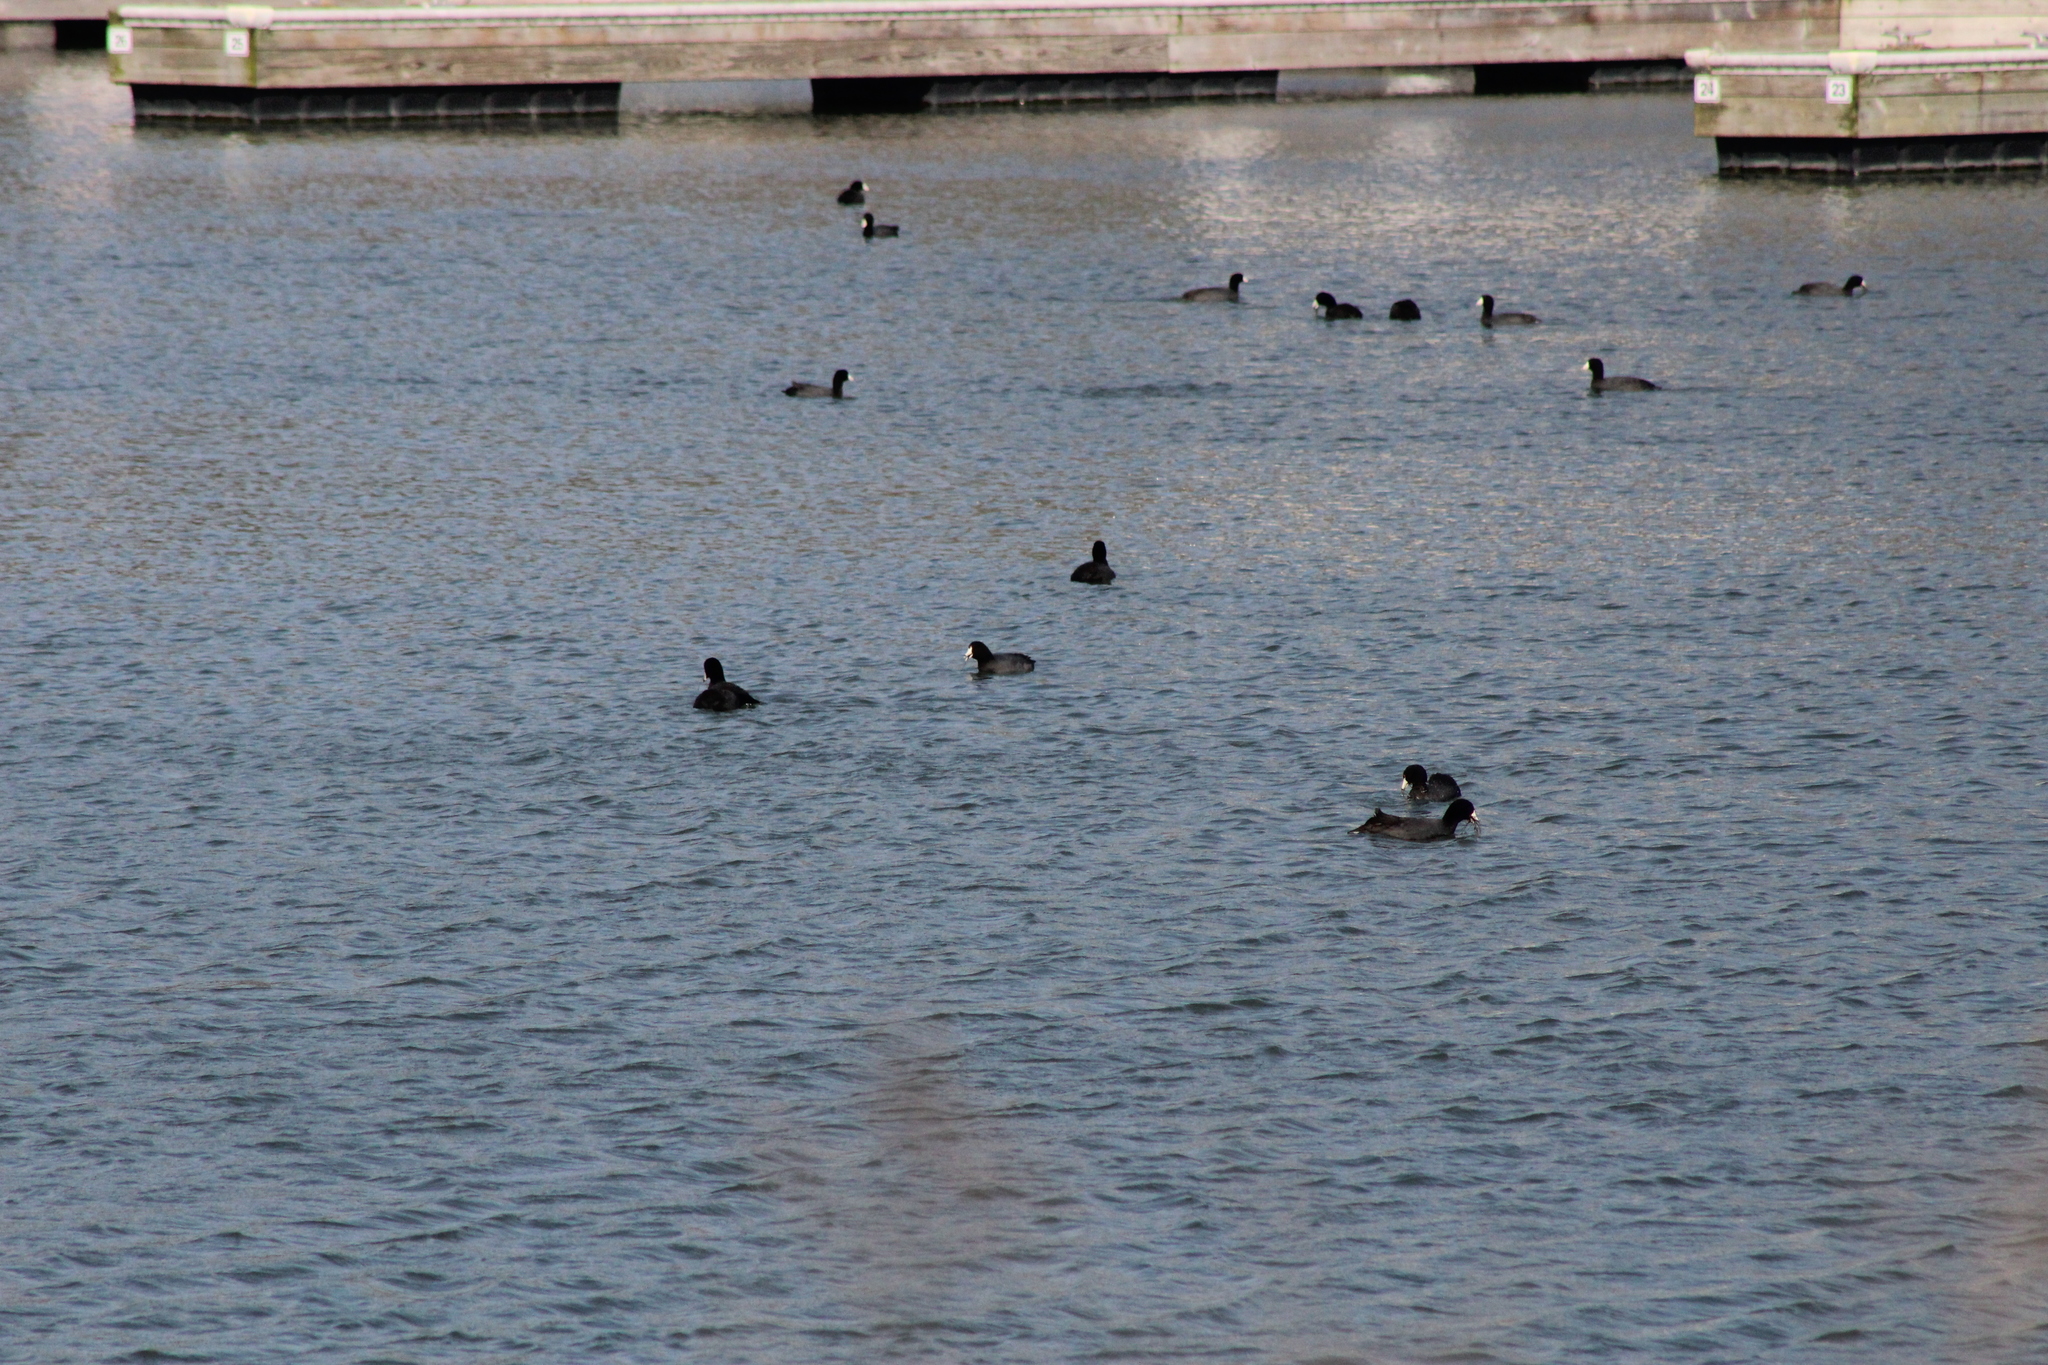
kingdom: Animalia
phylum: Chordata
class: Aves
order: Gruiformes
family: Rallidae
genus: Fulica
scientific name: Fulica americana
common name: American coot
